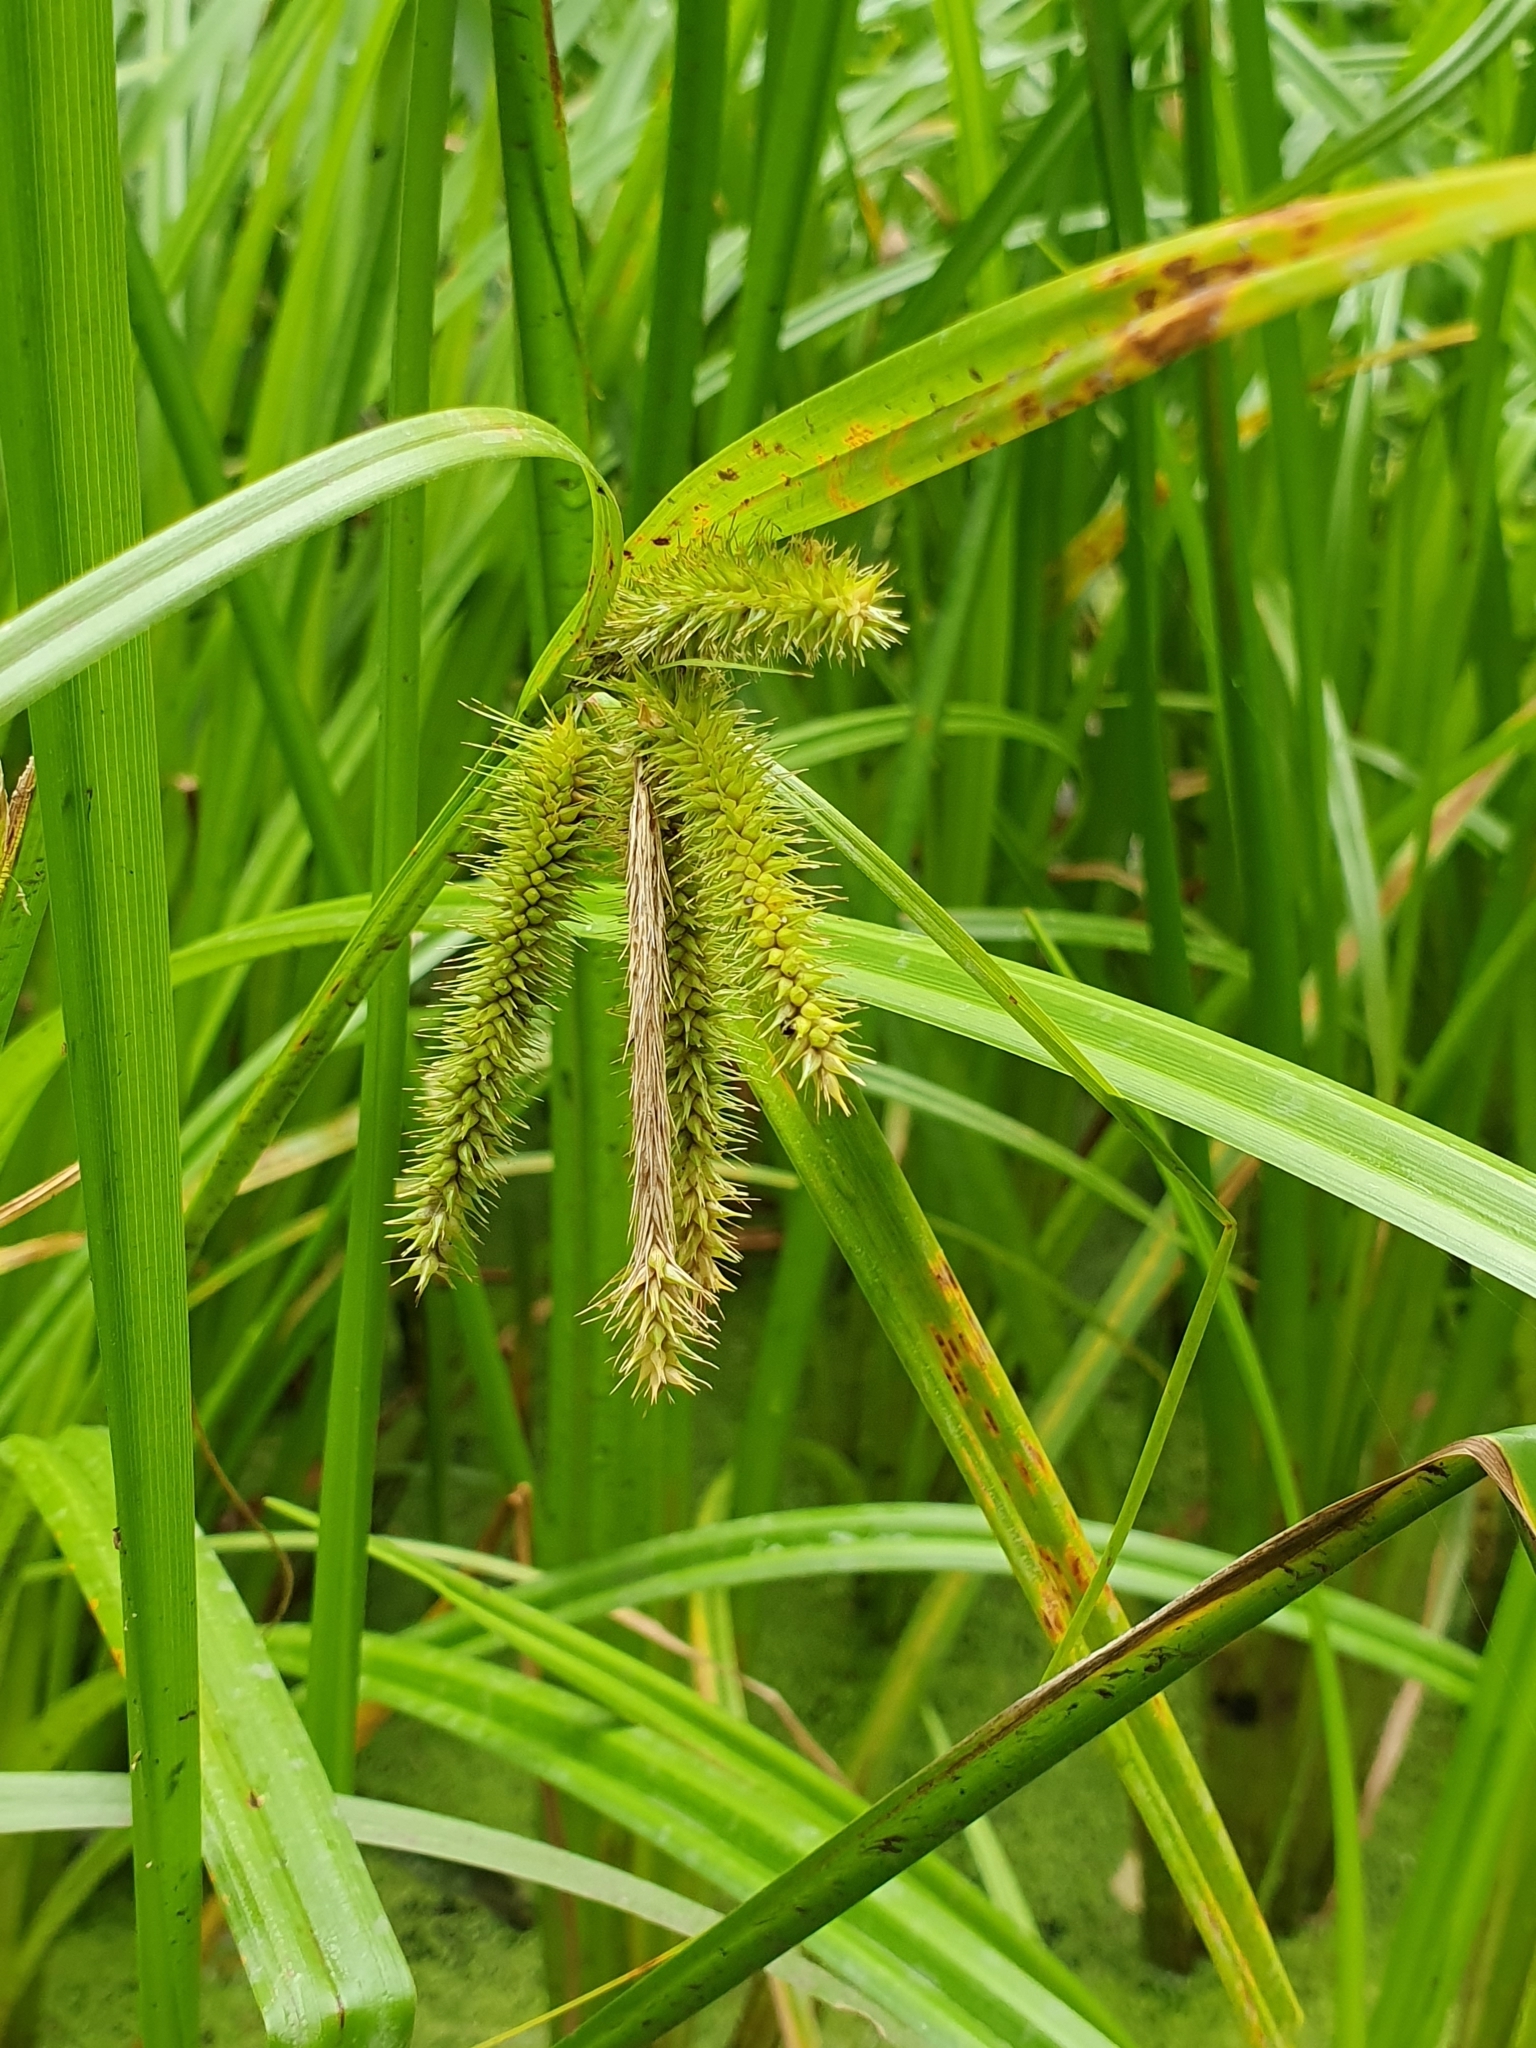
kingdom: Plantae
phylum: Tracheophyta
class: Liliopsida
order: Poales
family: Cyperaceae
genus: Carex
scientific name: Carex pseudocyperus
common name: Cyperus sedge
